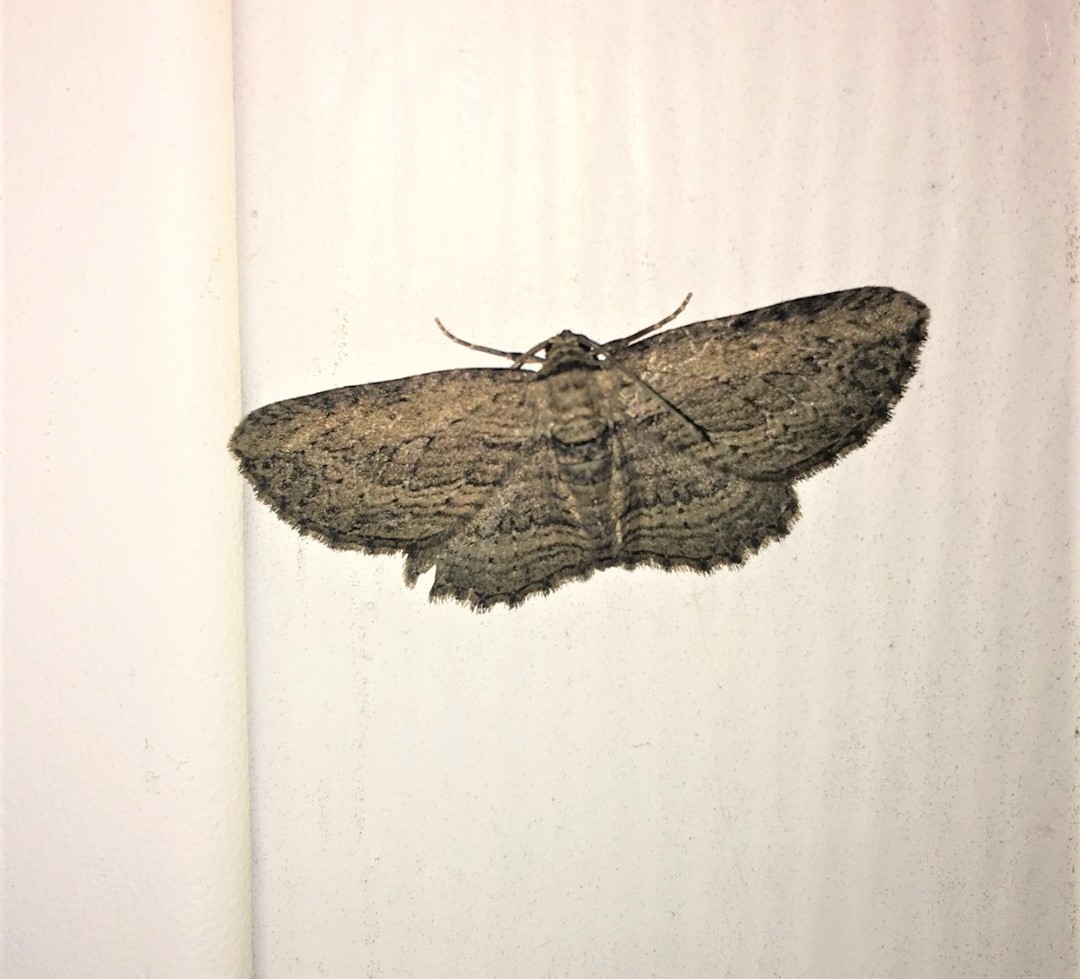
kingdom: Animalia
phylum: Arthropoda
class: Insecta
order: Lepidoptera
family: Geometridae
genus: Horisme
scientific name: Horisme intestinata
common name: Brown bark carpet
